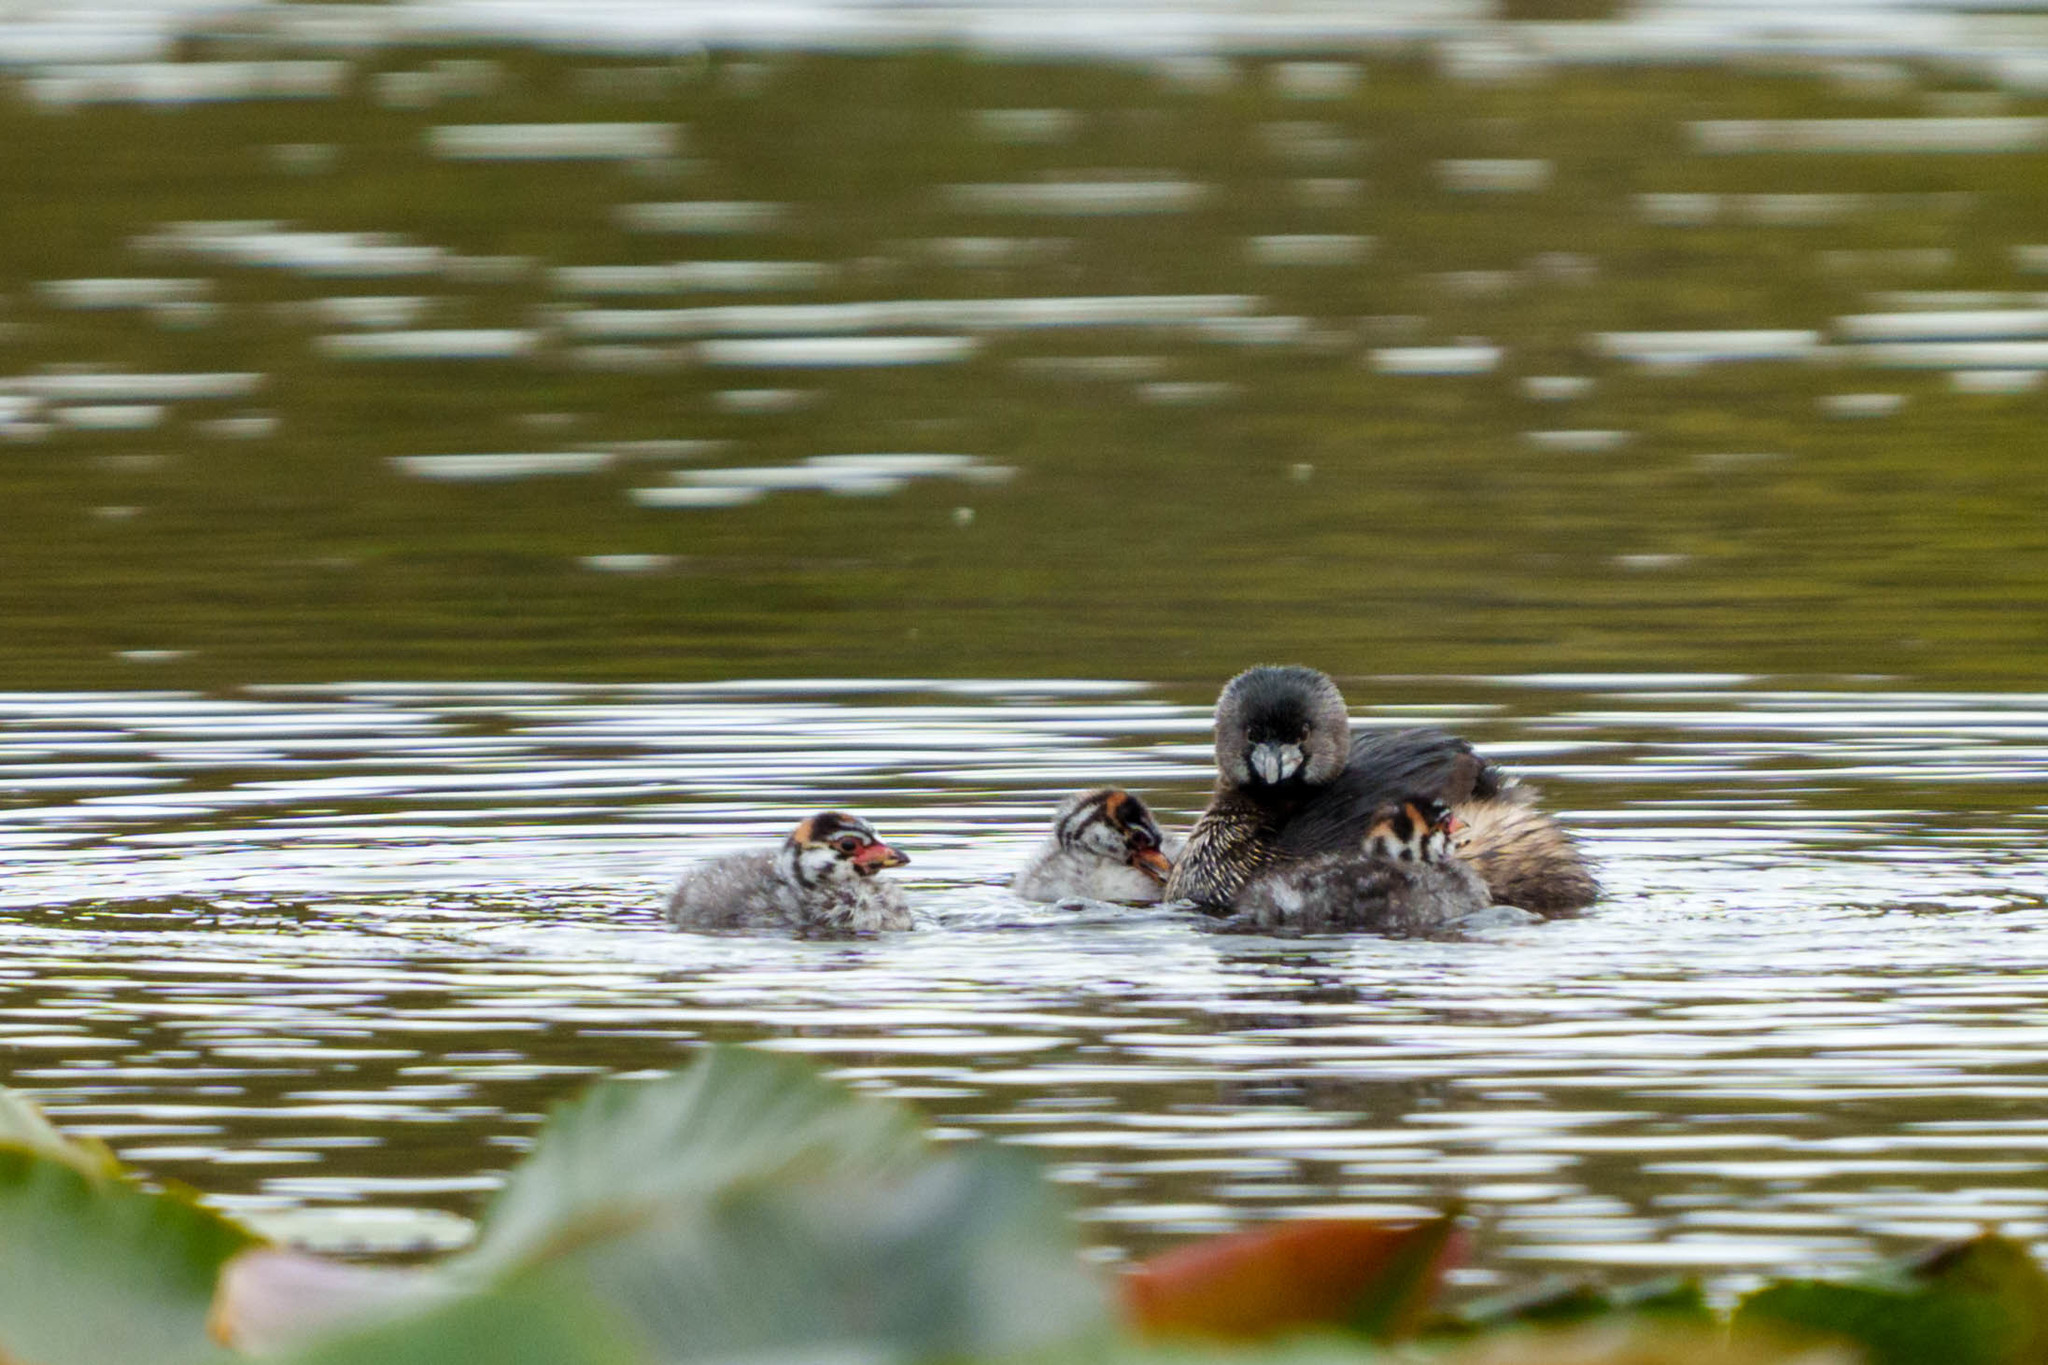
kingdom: Animalia
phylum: Chordata
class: Aves
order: Podicipediformes
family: Podicipedidae
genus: Podilymbus
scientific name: Podilymbus podiceps
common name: Pied-billed grebe
